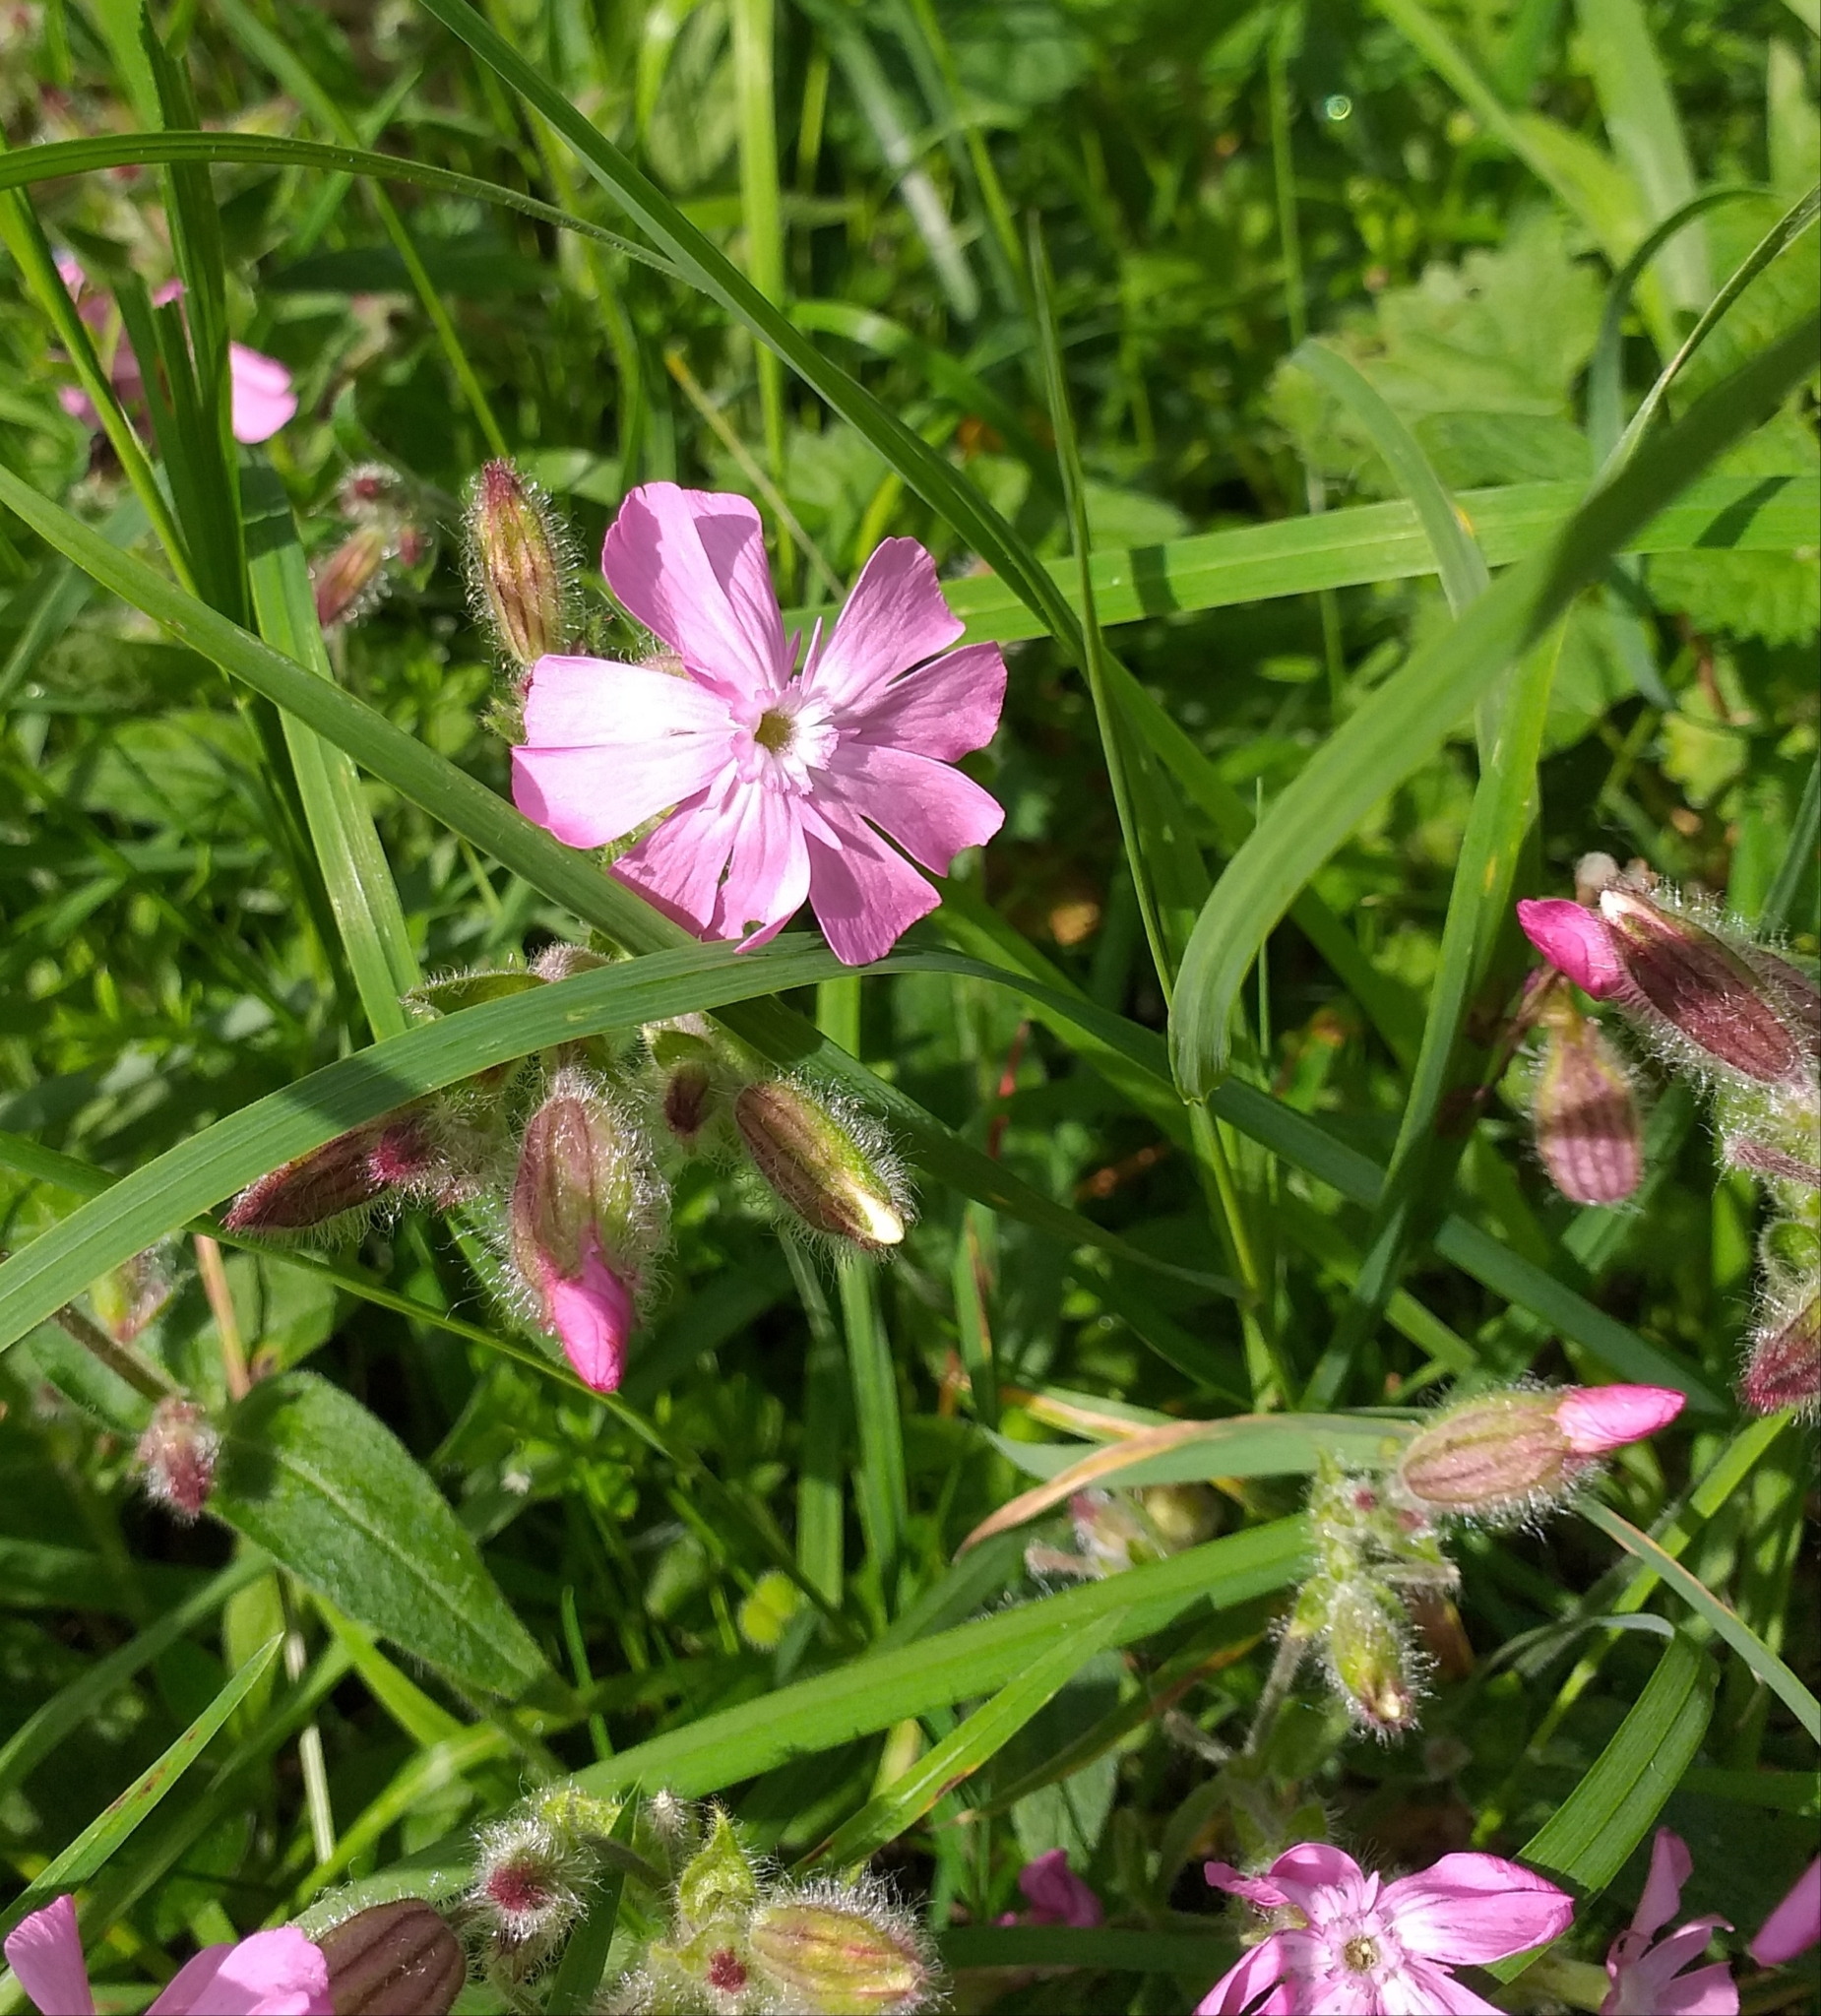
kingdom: Plantae
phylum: Tracheophyta
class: Magnoliopsida
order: Caryophyllales
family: Caryophyllaceae
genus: Silene
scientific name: Silene dioica
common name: Red campion
